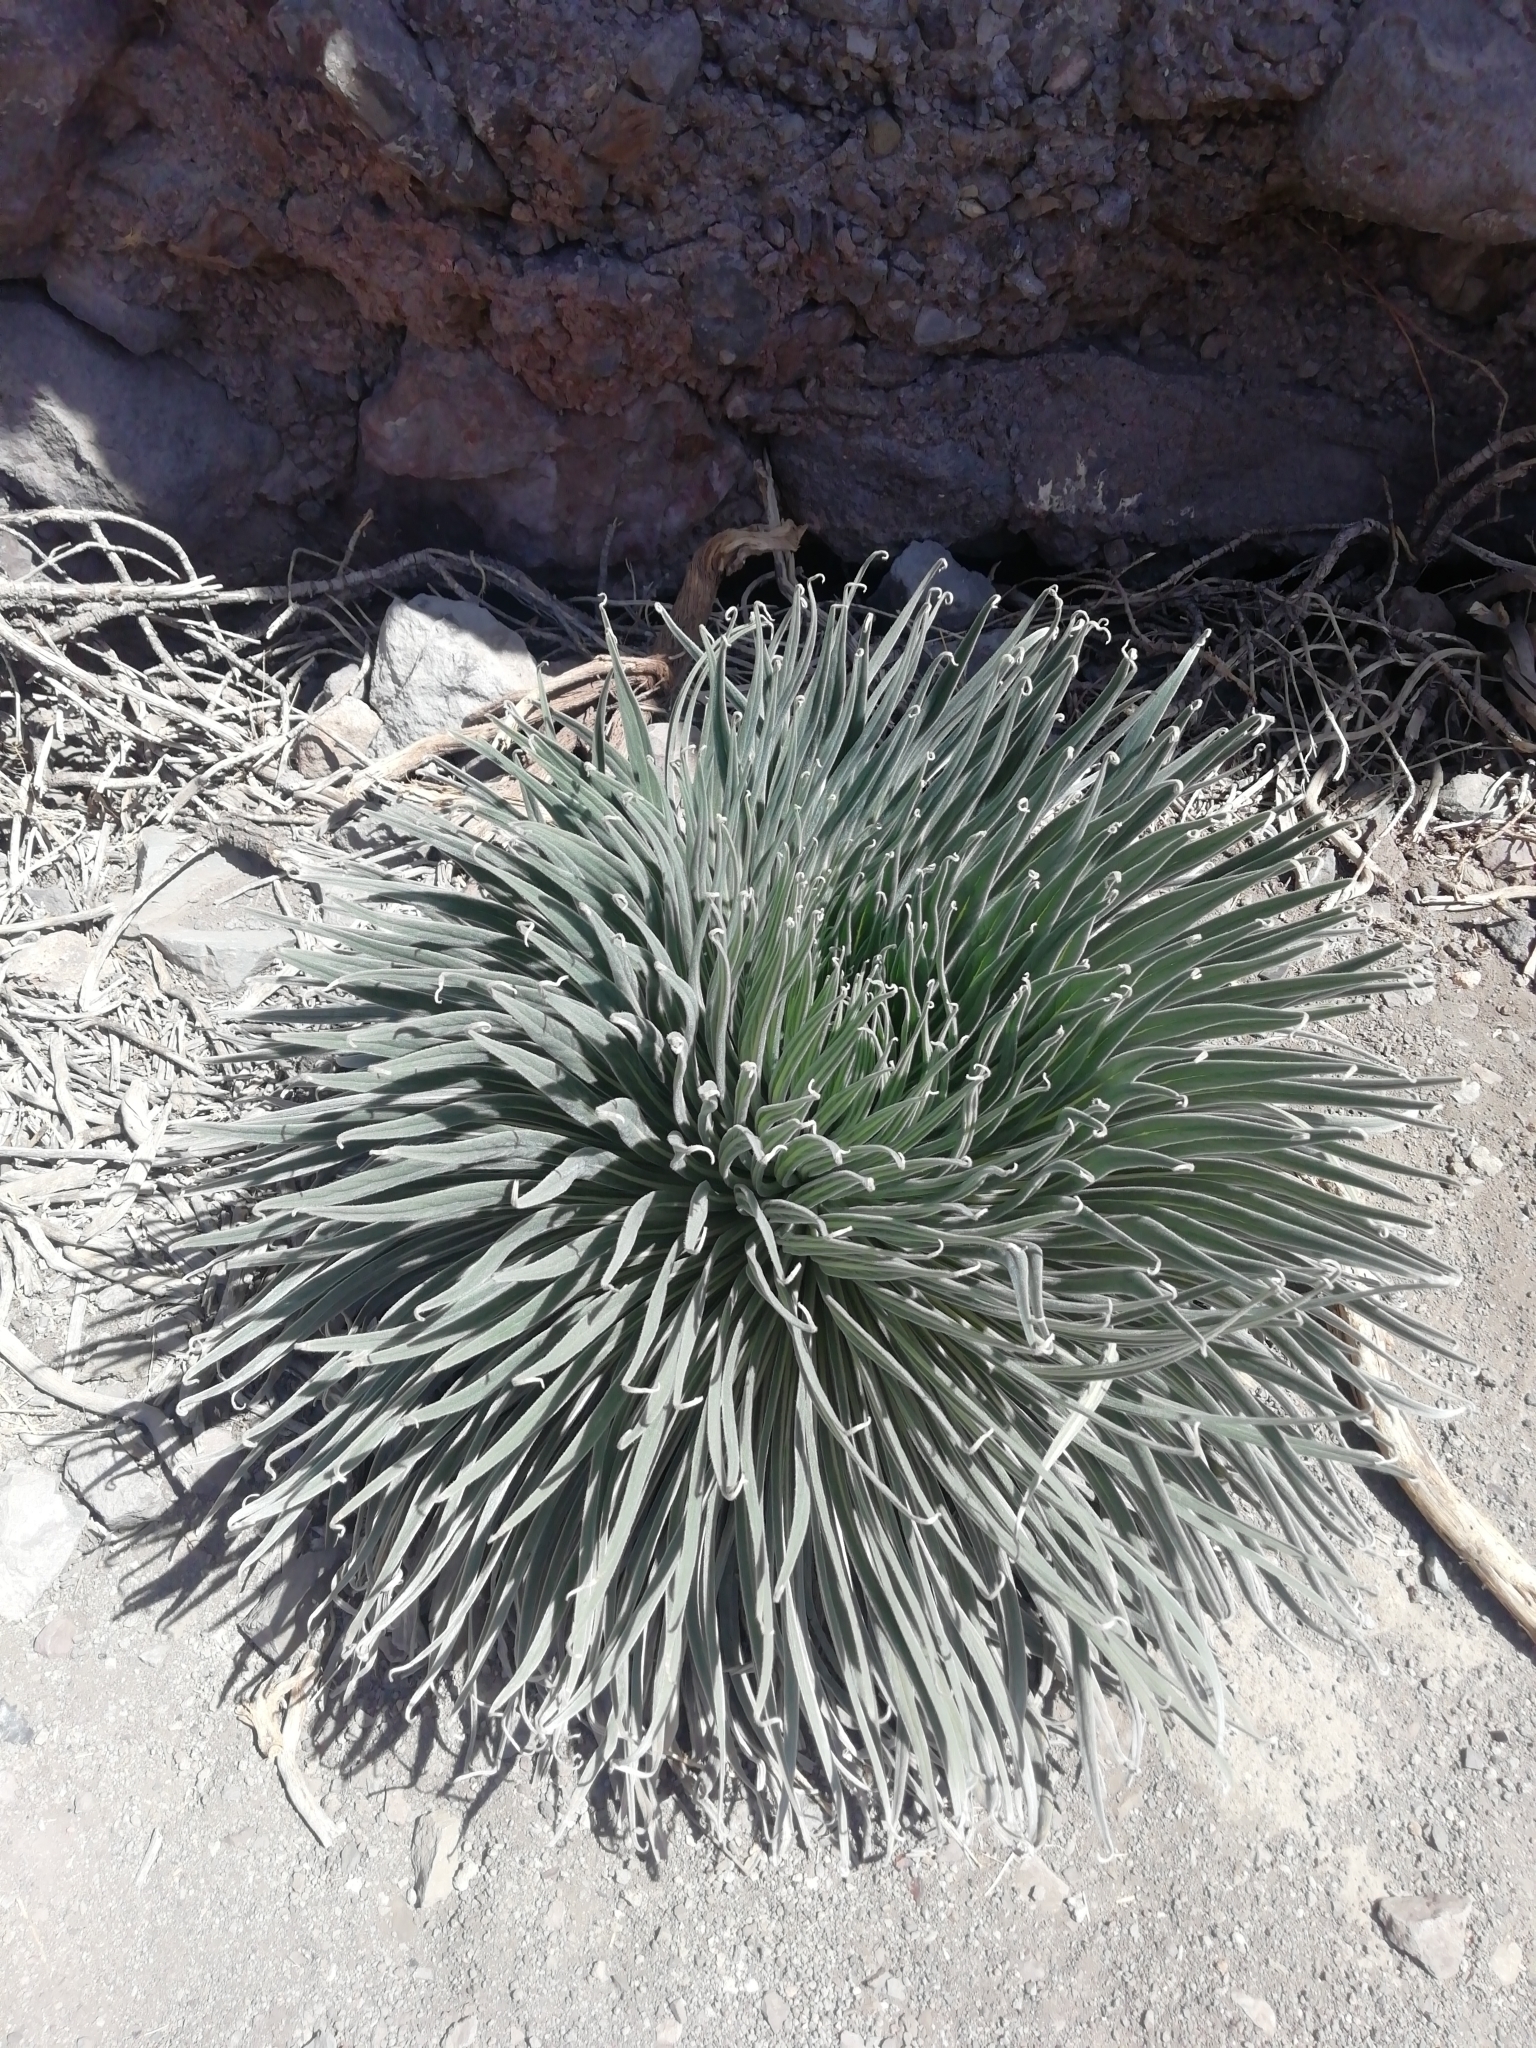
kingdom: Plantae
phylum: Tracheophyta
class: Magnoliopsida
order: Boraginales
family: Boraginaceae
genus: Echium
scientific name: Echium wildpretii
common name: Tower-of-jewels
